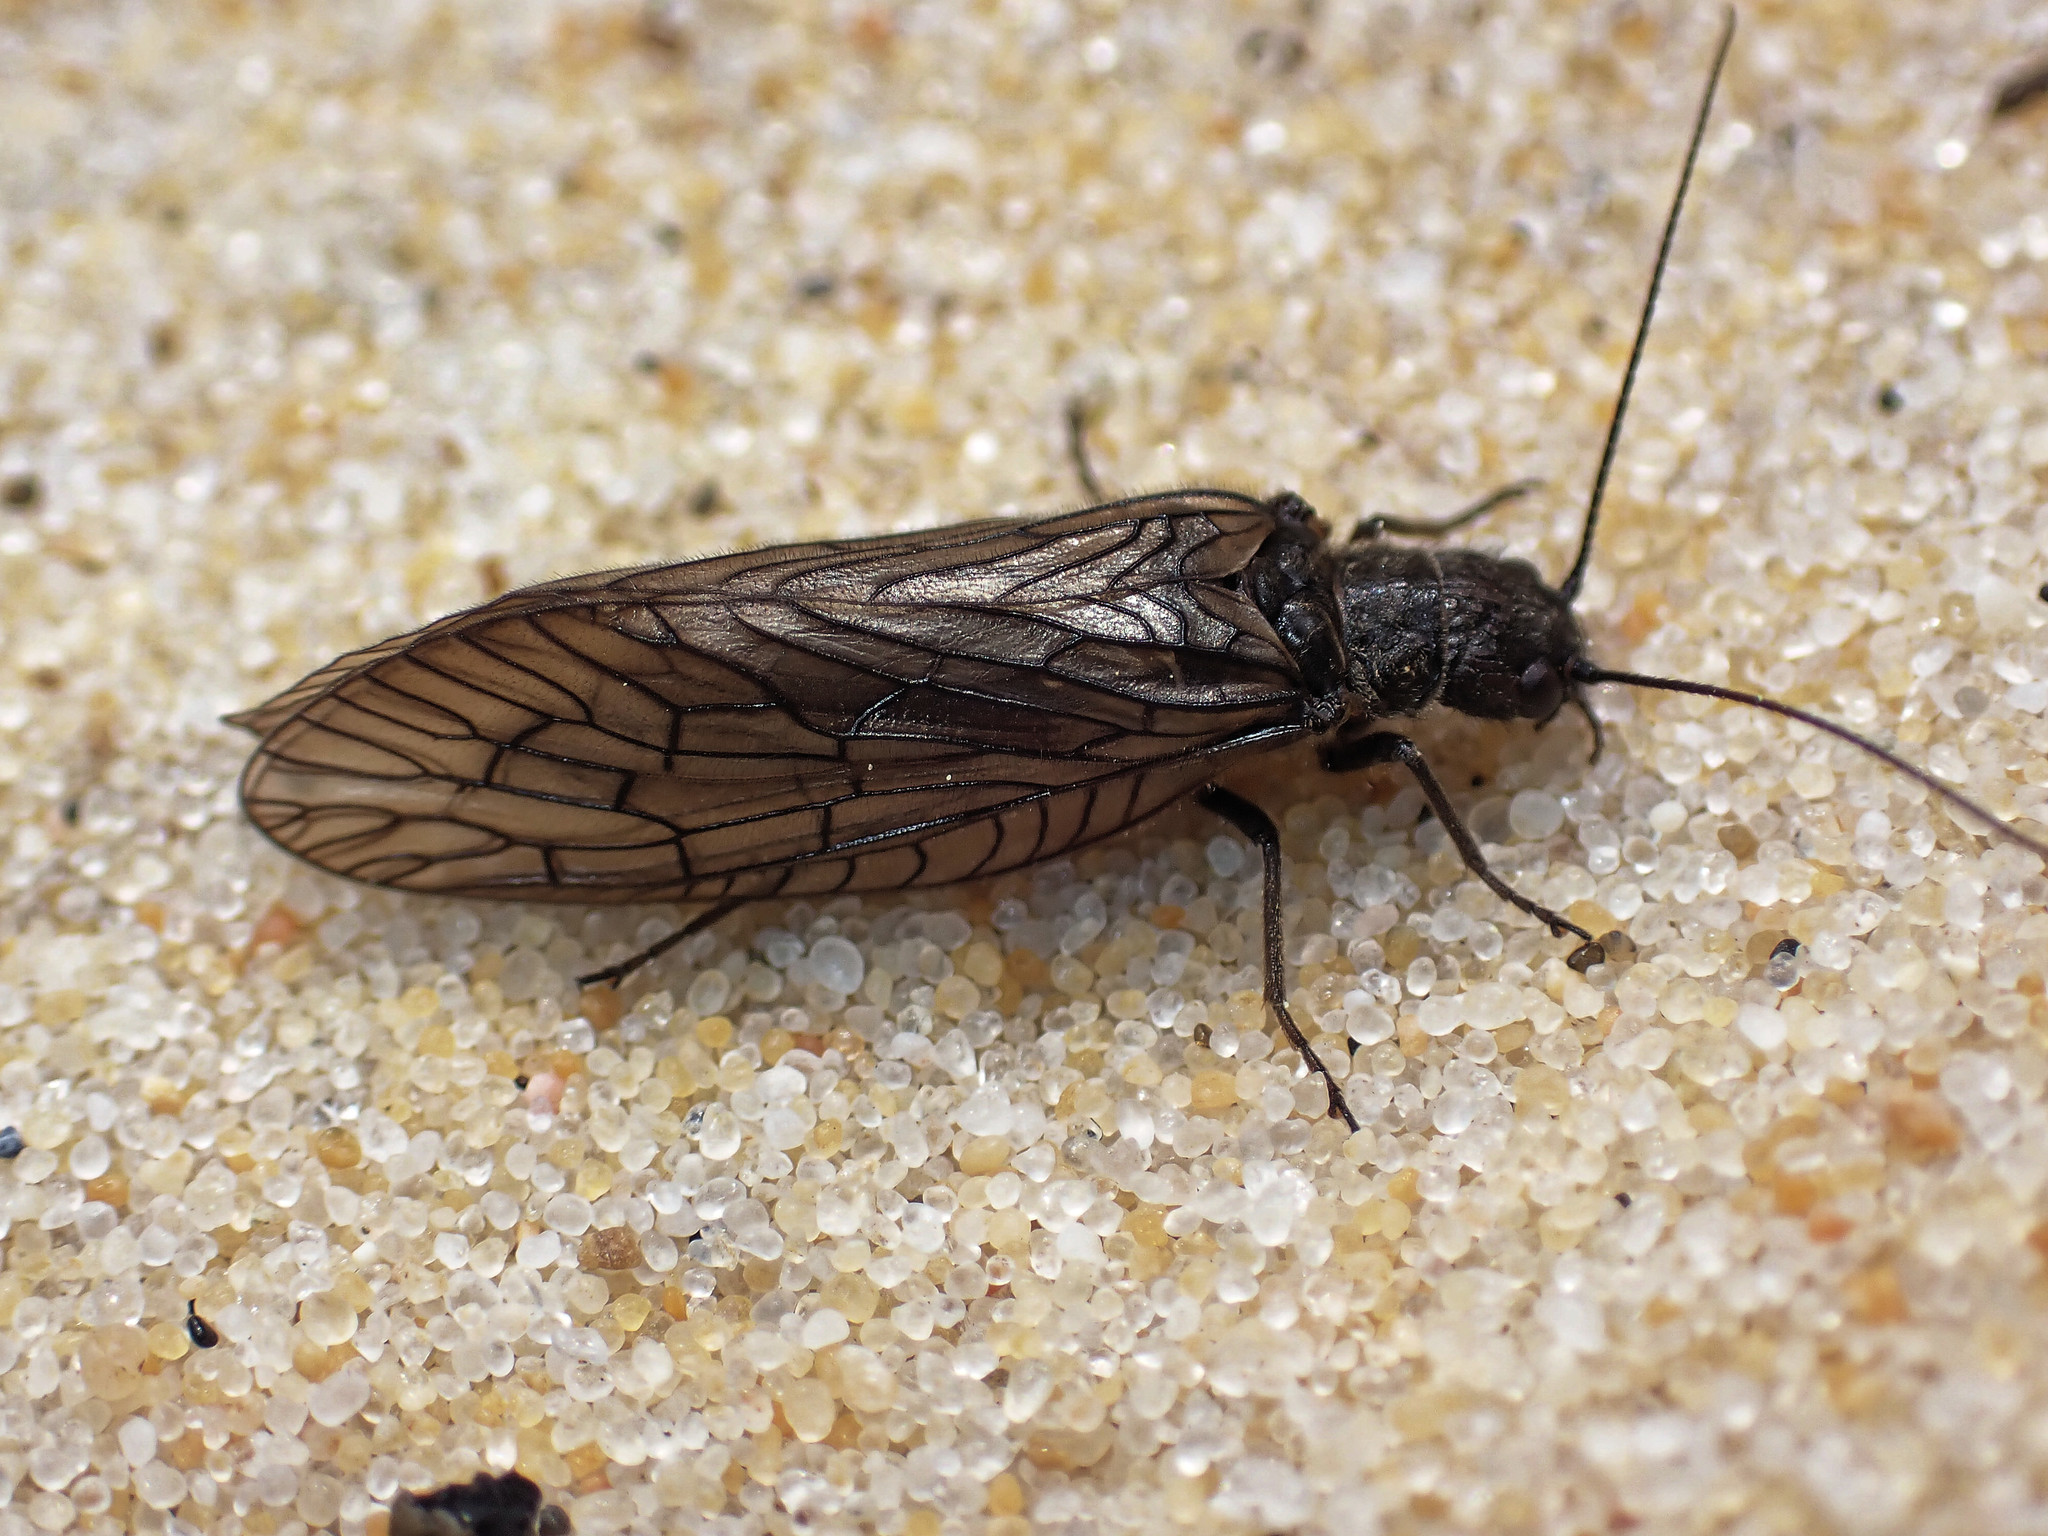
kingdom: Animalia
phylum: Arthropoda
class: Insecta
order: Megaloptera
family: Sialidae
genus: Sialis
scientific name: Sialis
